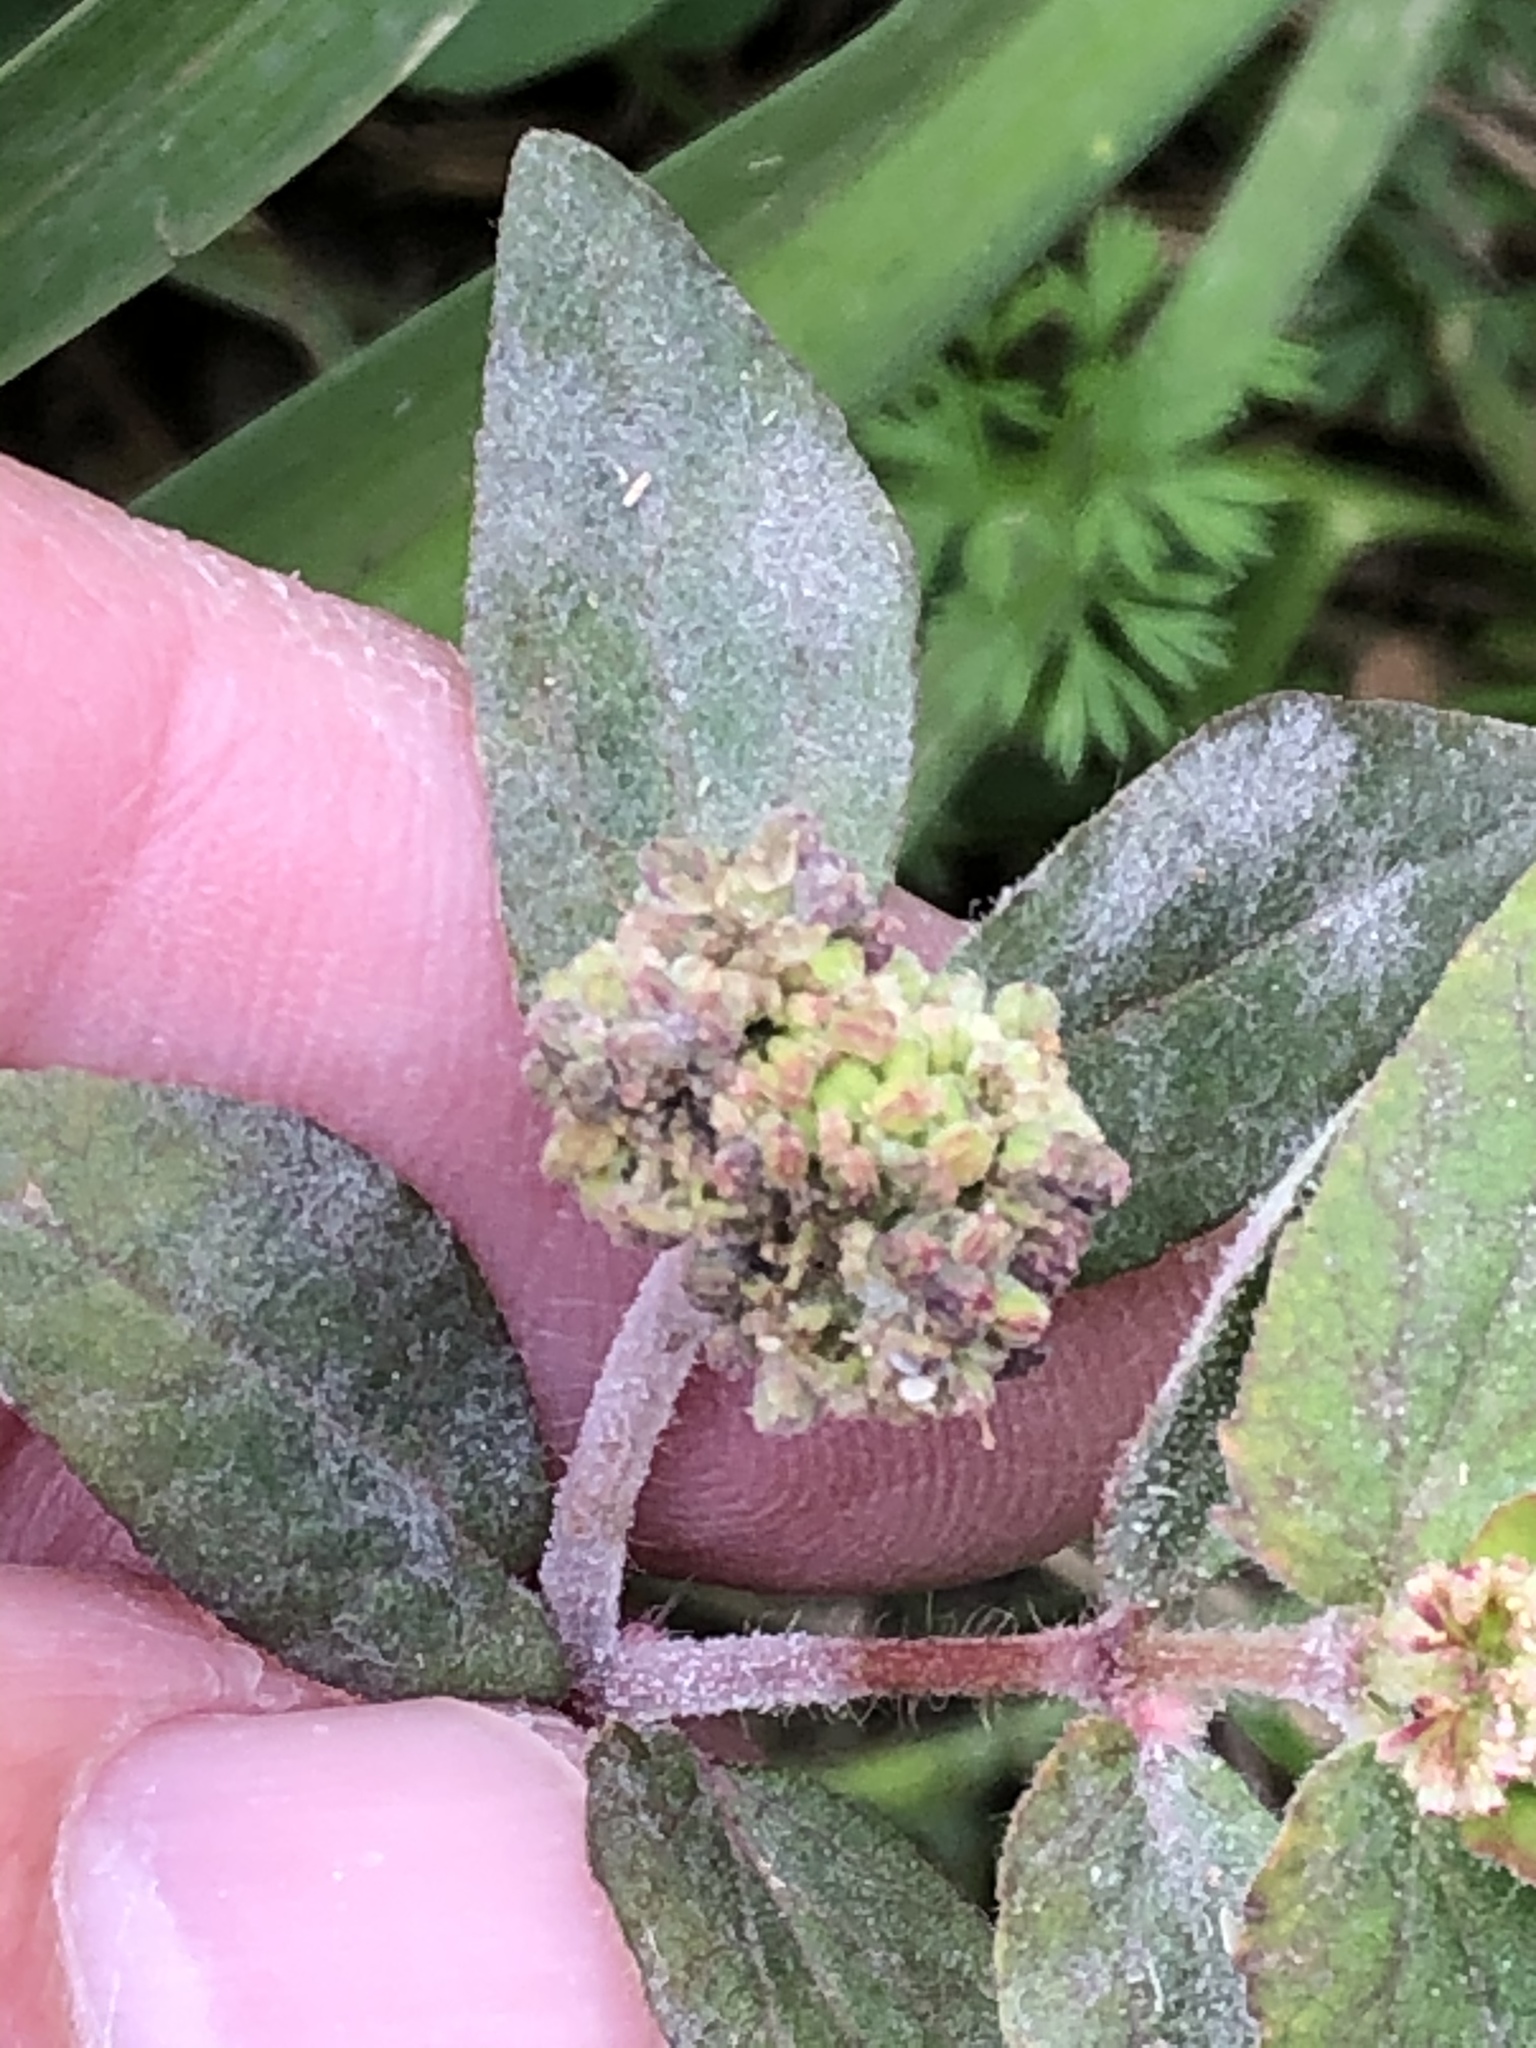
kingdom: Plantae
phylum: Tracheophyta
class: Magnoliopsida
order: Malpighiales
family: Euphorbiaceae
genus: Euphorbia
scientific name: Euphorbia ophthalmica
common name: Florida hammock sandmat
